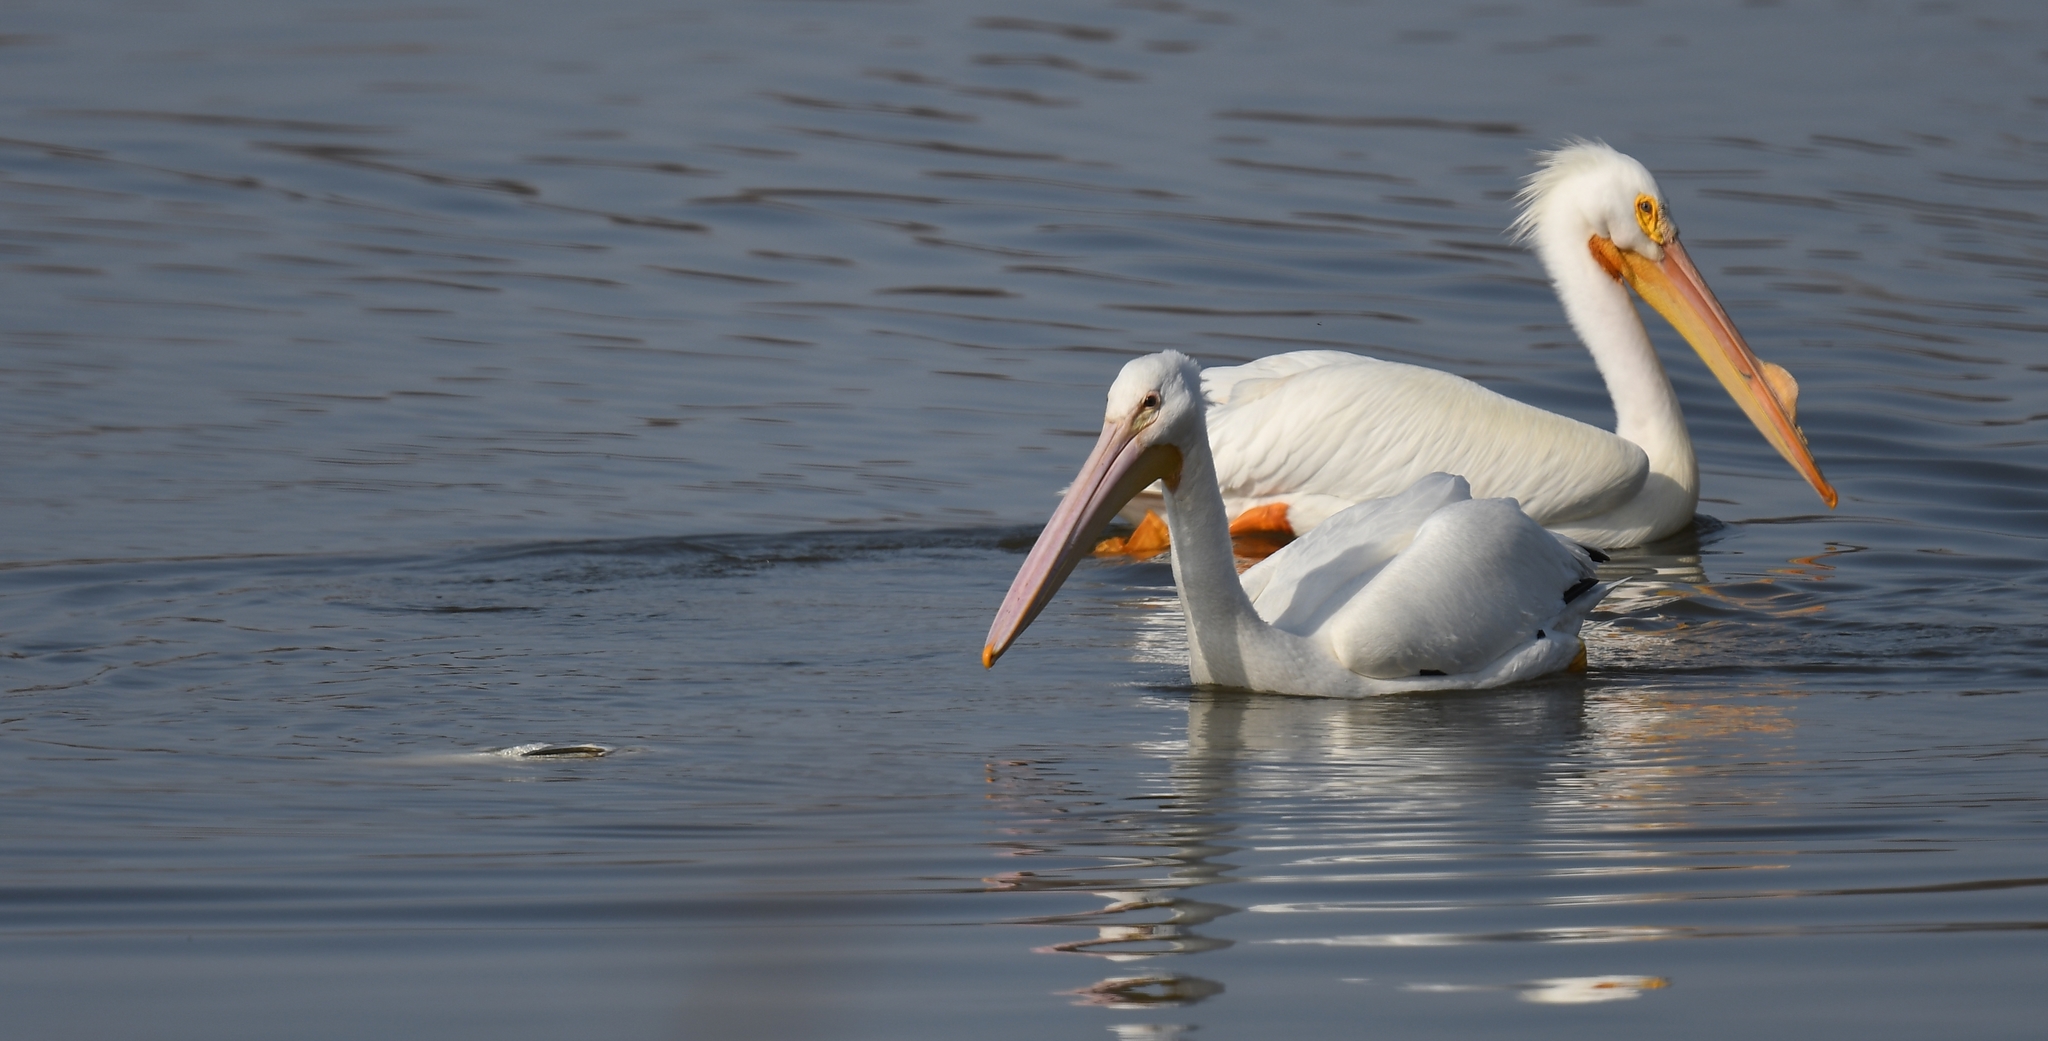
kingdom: Animalia
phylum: Chordata
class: Aves
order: Pelecaniformes
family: Pelecanidae
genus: Pelecanus
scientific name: Pelecanus erythrorhynchos
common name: American white pelican
